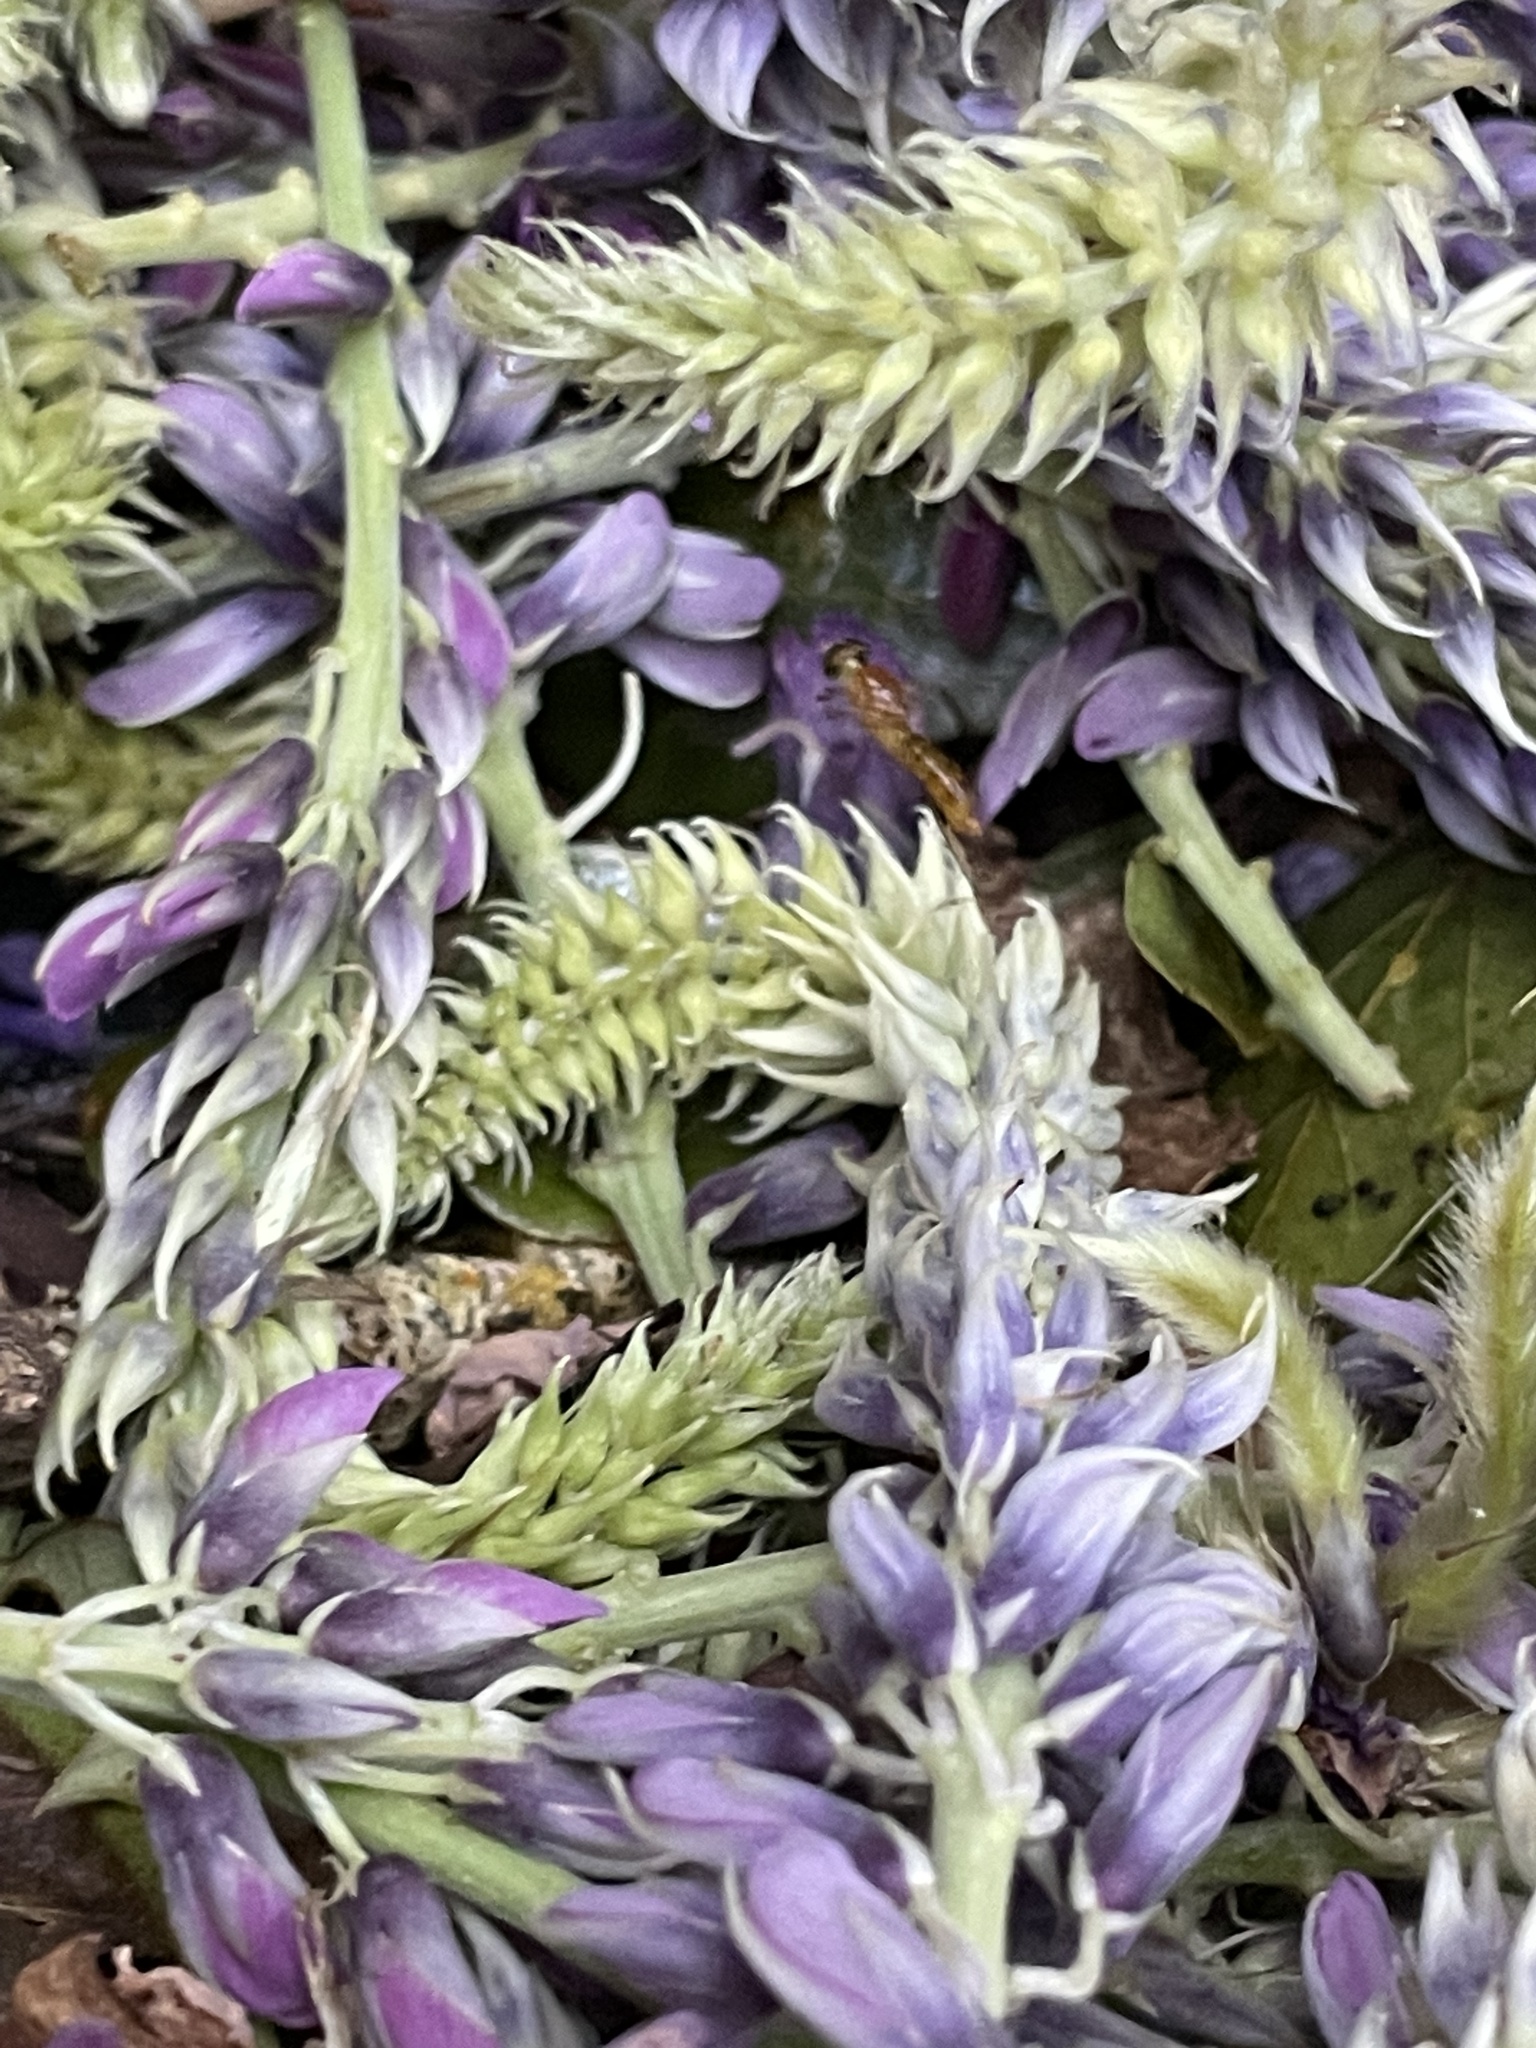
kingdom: Animalia
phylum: Arthropoda
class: Insecta
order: Diptera
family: Stratiomyidae
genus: Ptecticus
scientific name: Ptecticus trivittatus
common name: Compost fly
